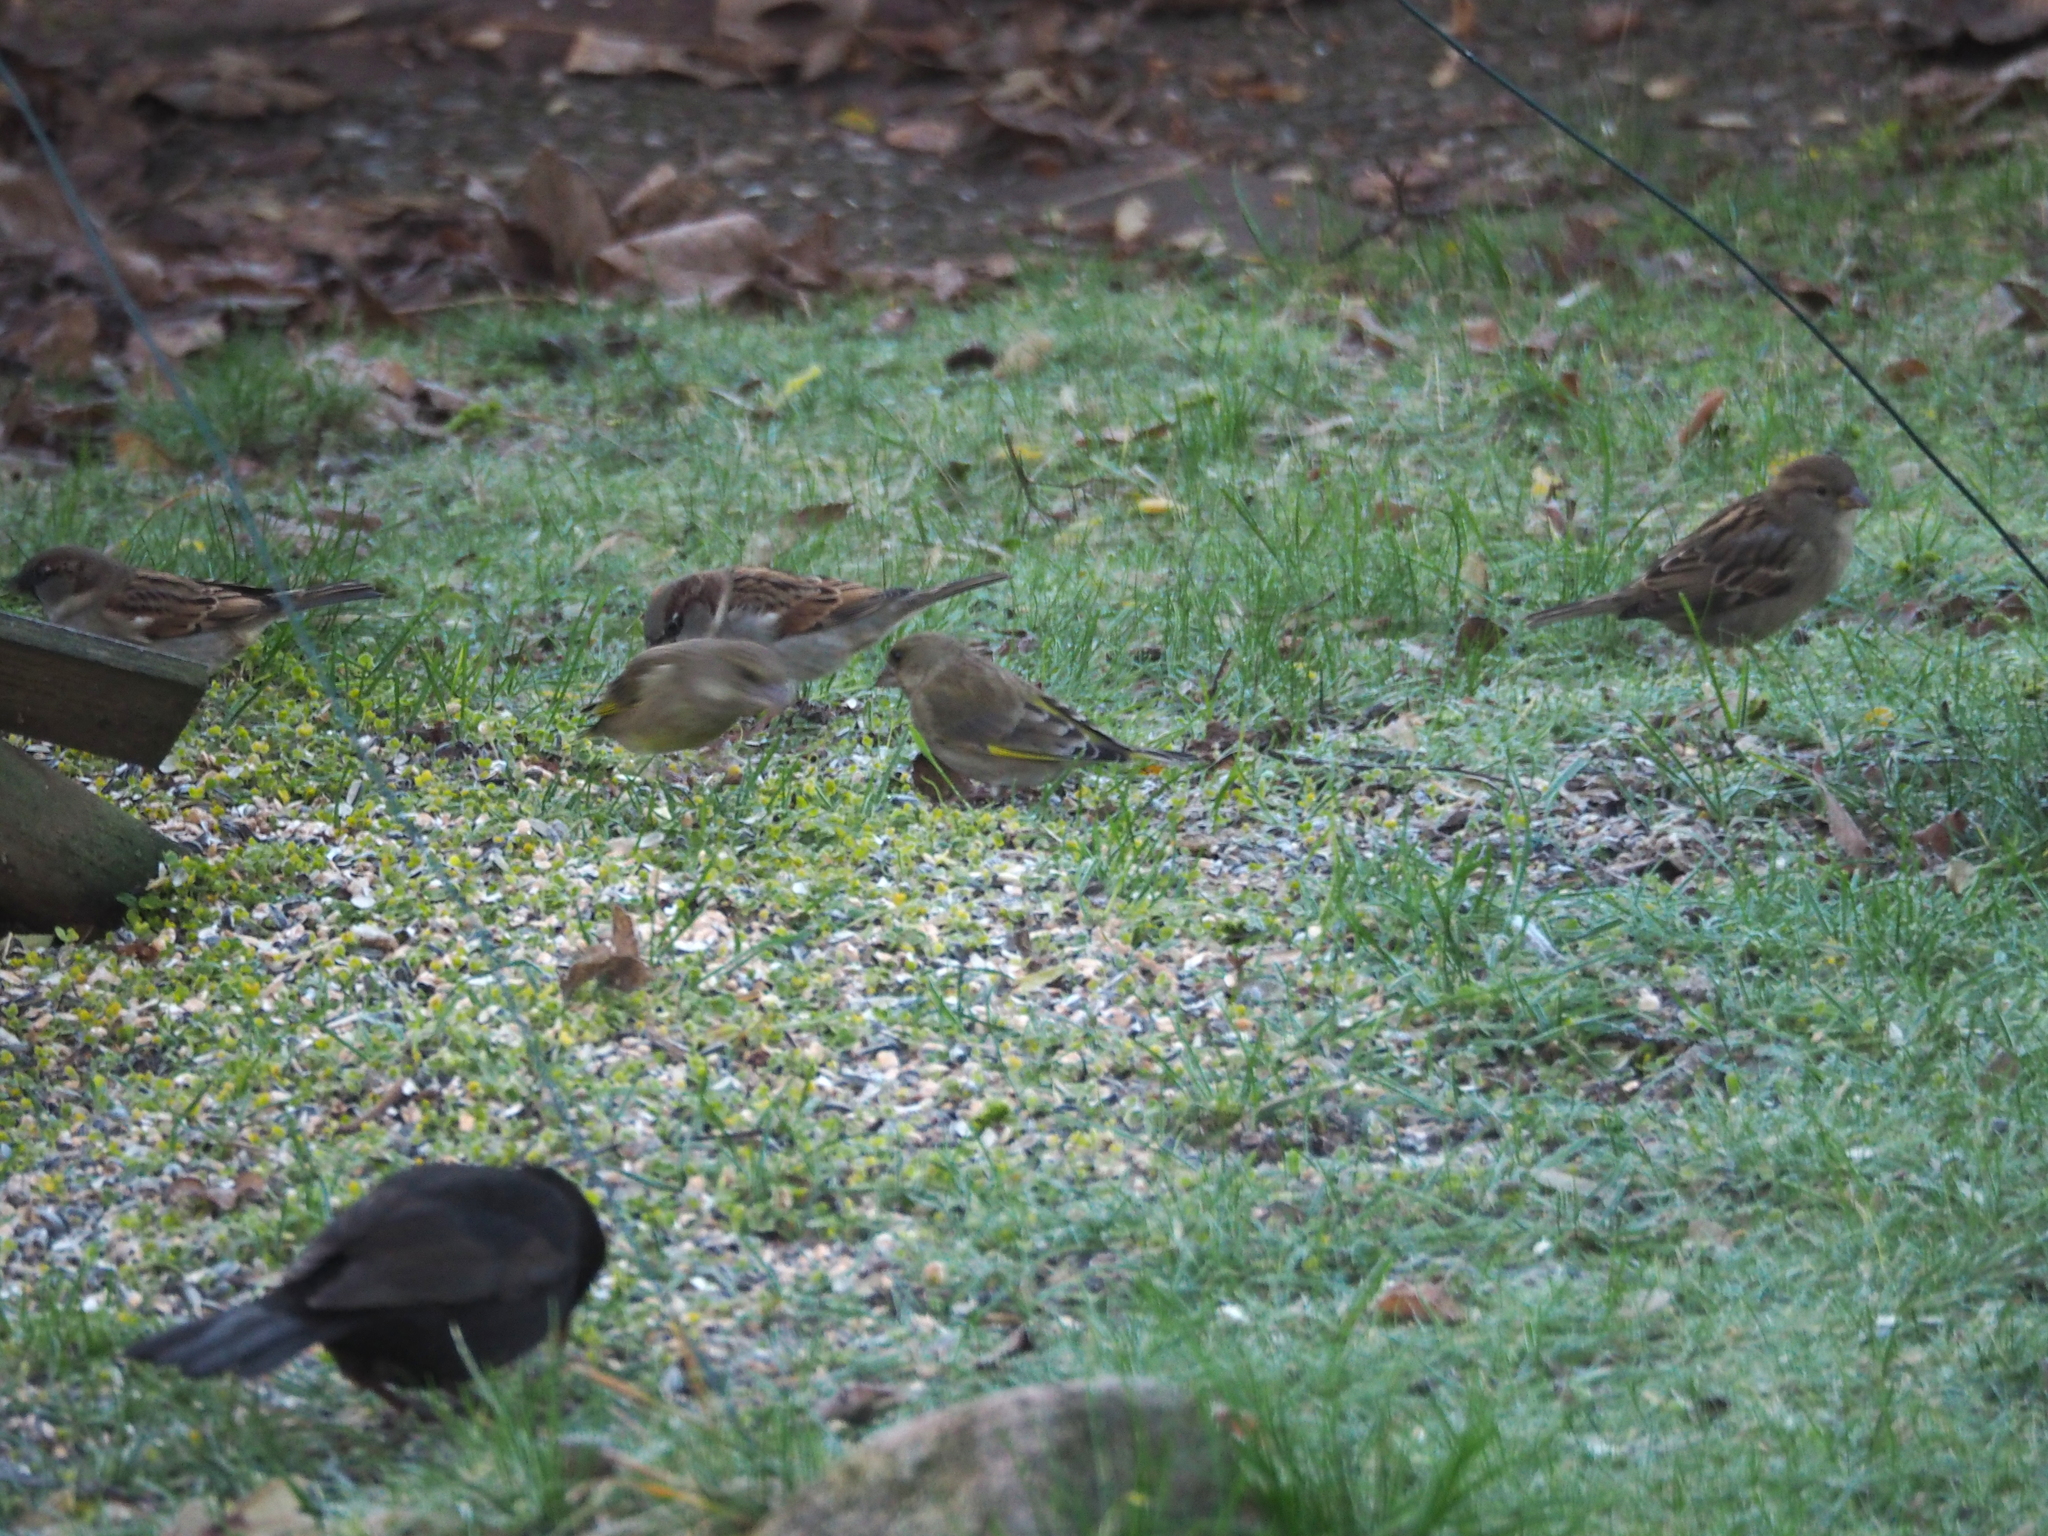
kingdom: Plantae
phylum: Tracheophyta
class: Liliopsida
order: Poales
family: Poaceae
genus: Chloris
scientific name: Chloris chloris
